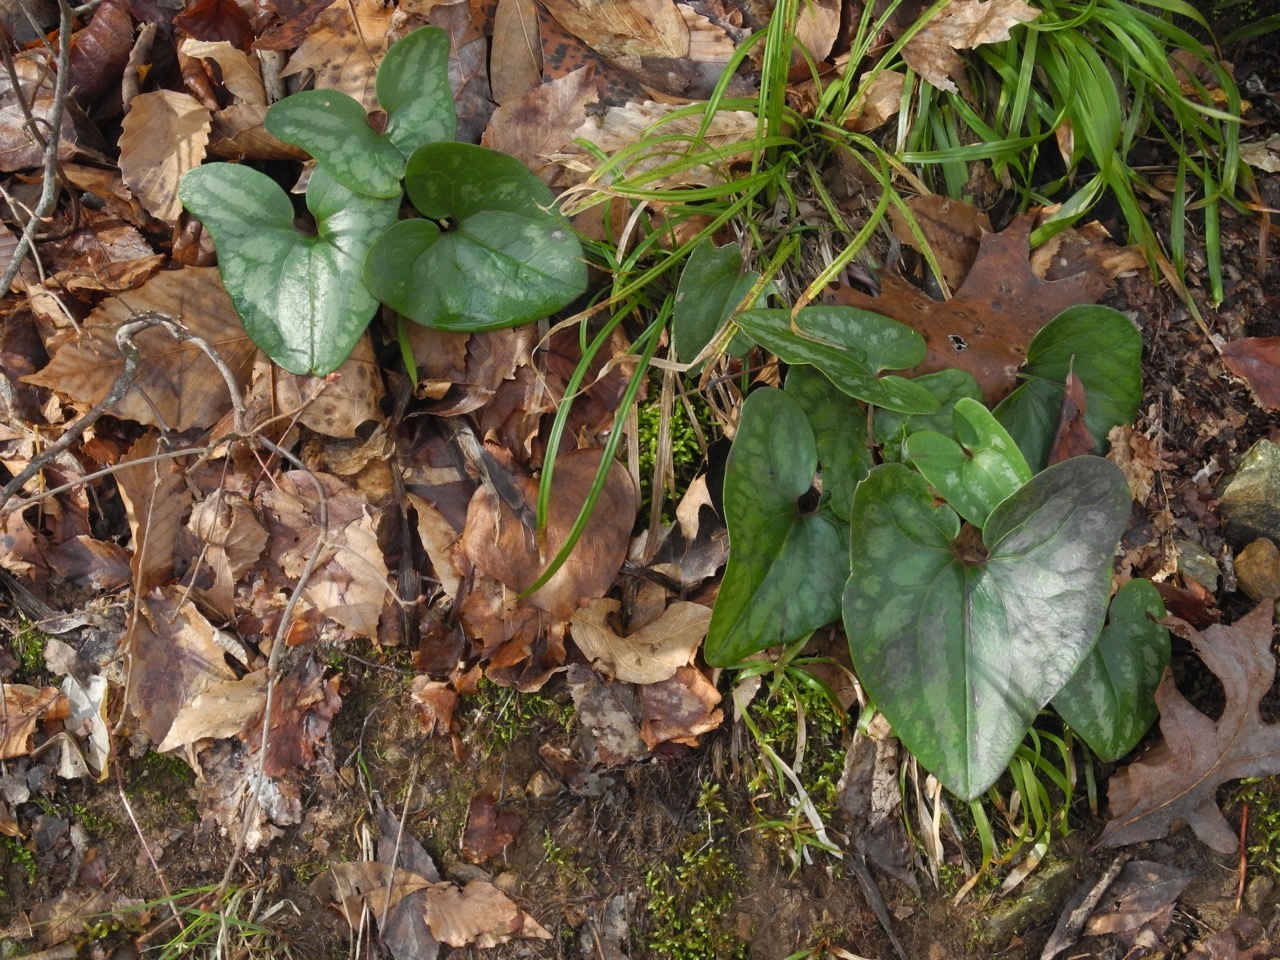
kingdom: Plantae
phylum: Tracheophyta
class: Magnoliopsida
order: Piperales
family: Aristolochiaceae
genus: Hexastylis
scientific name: Hexastylis arifolia
